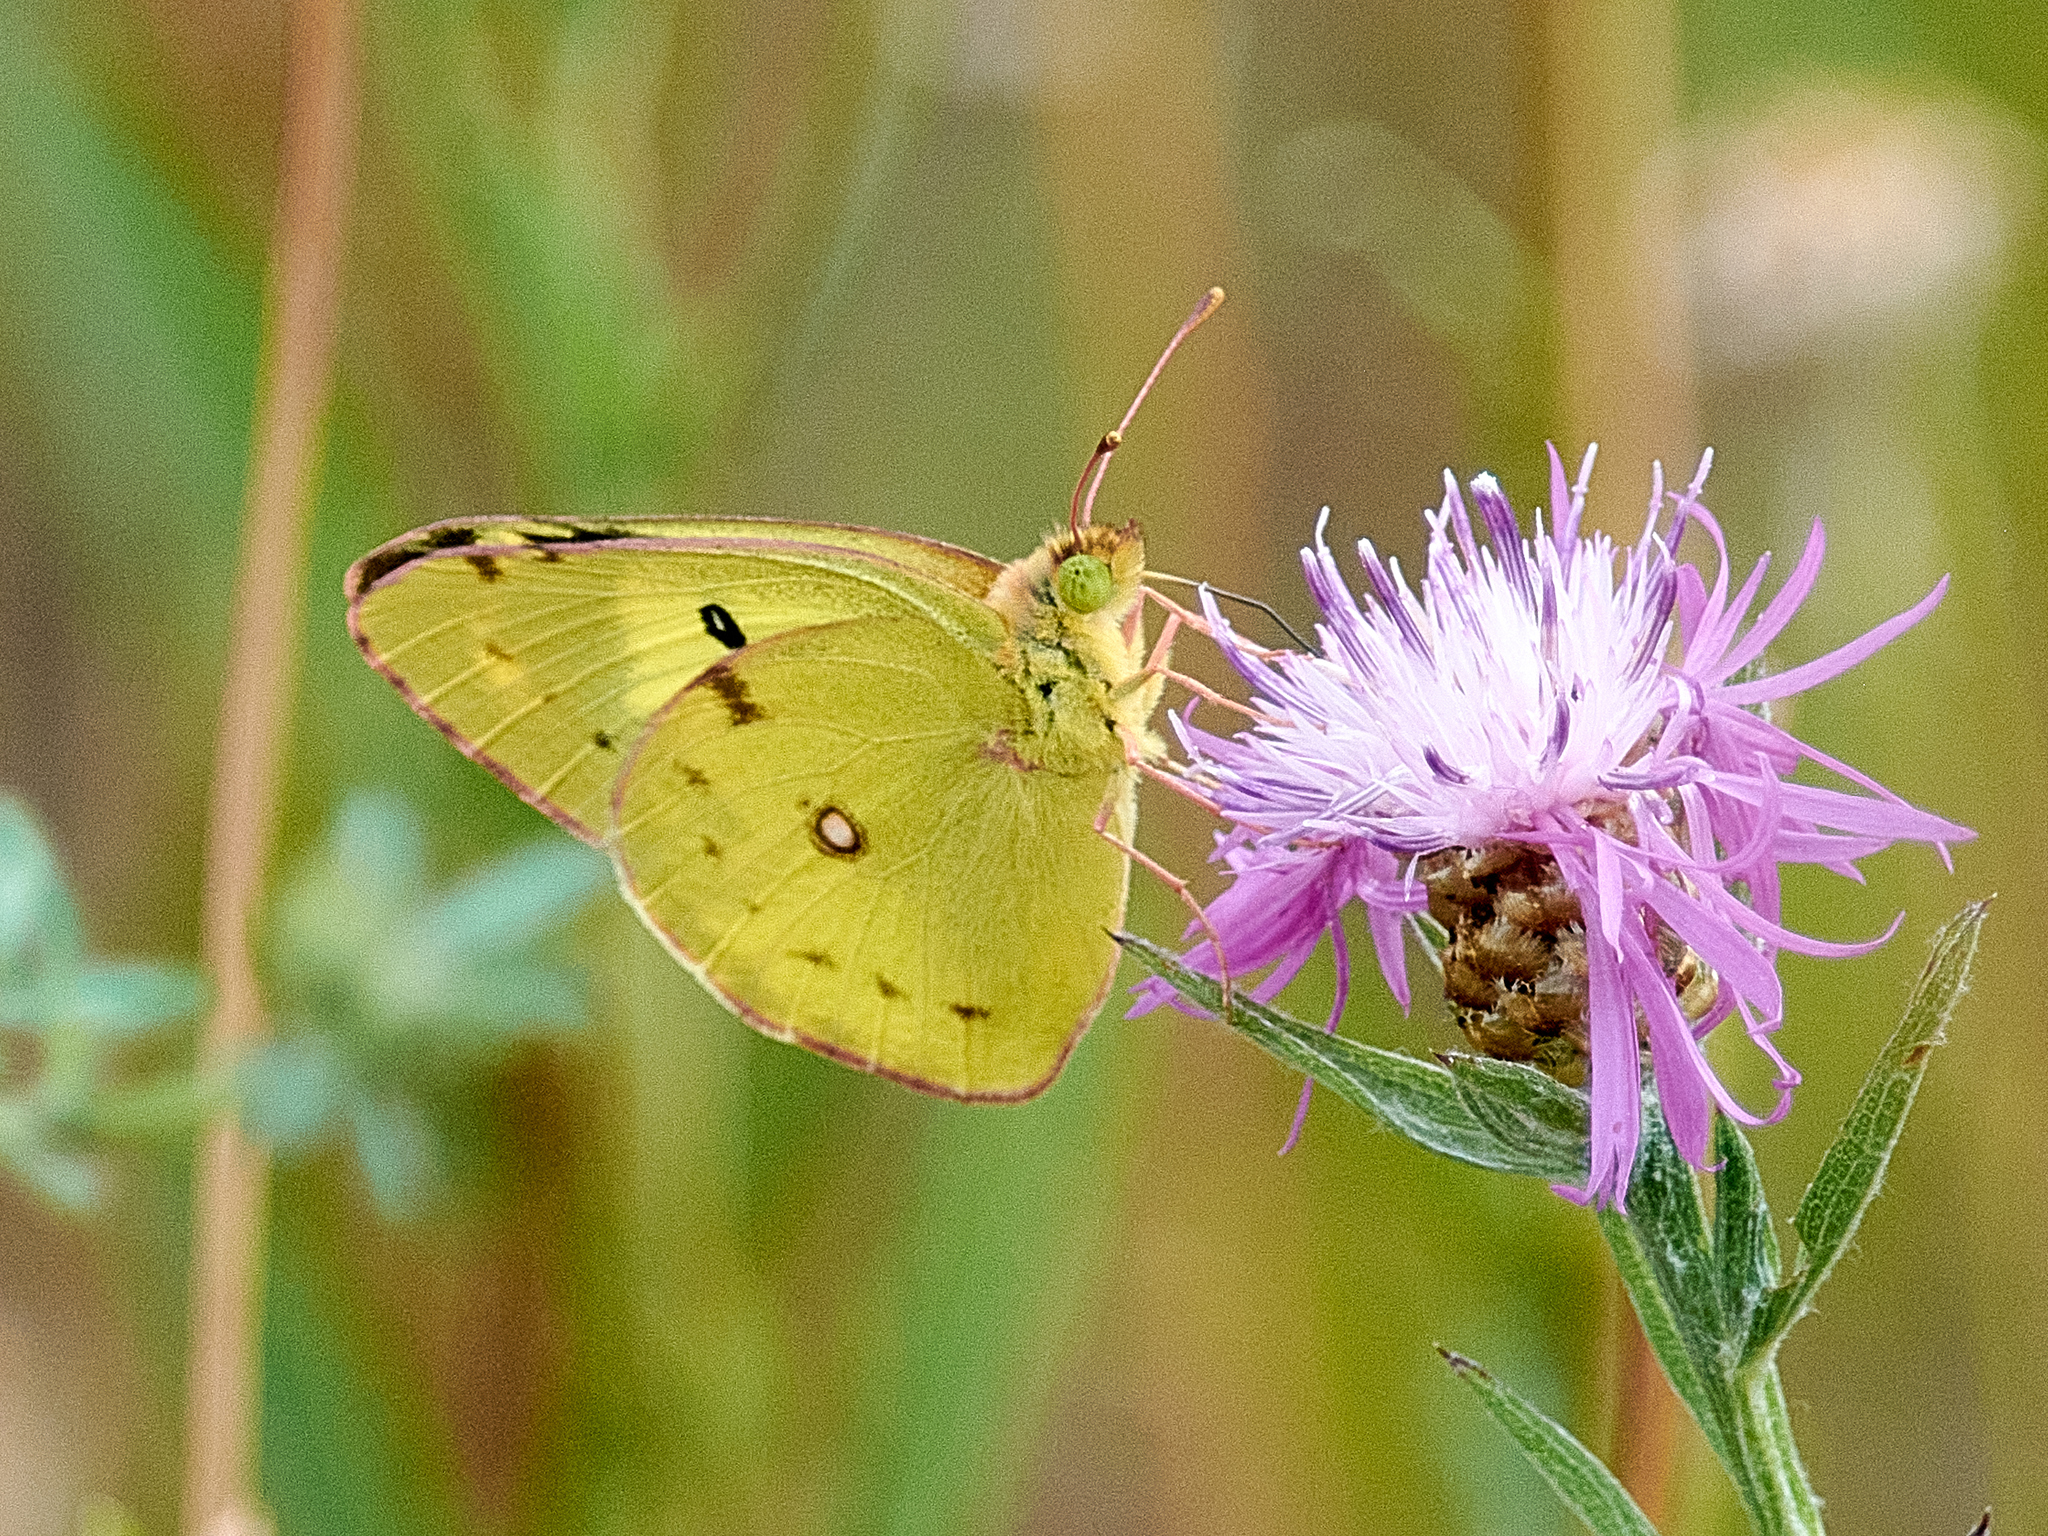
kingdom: Animalia
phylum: Arthropoda
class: Insecta
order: Lepidoptera
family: Pieridae
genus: Colias
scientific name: Colias hyale
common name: Pale clouded yellow
